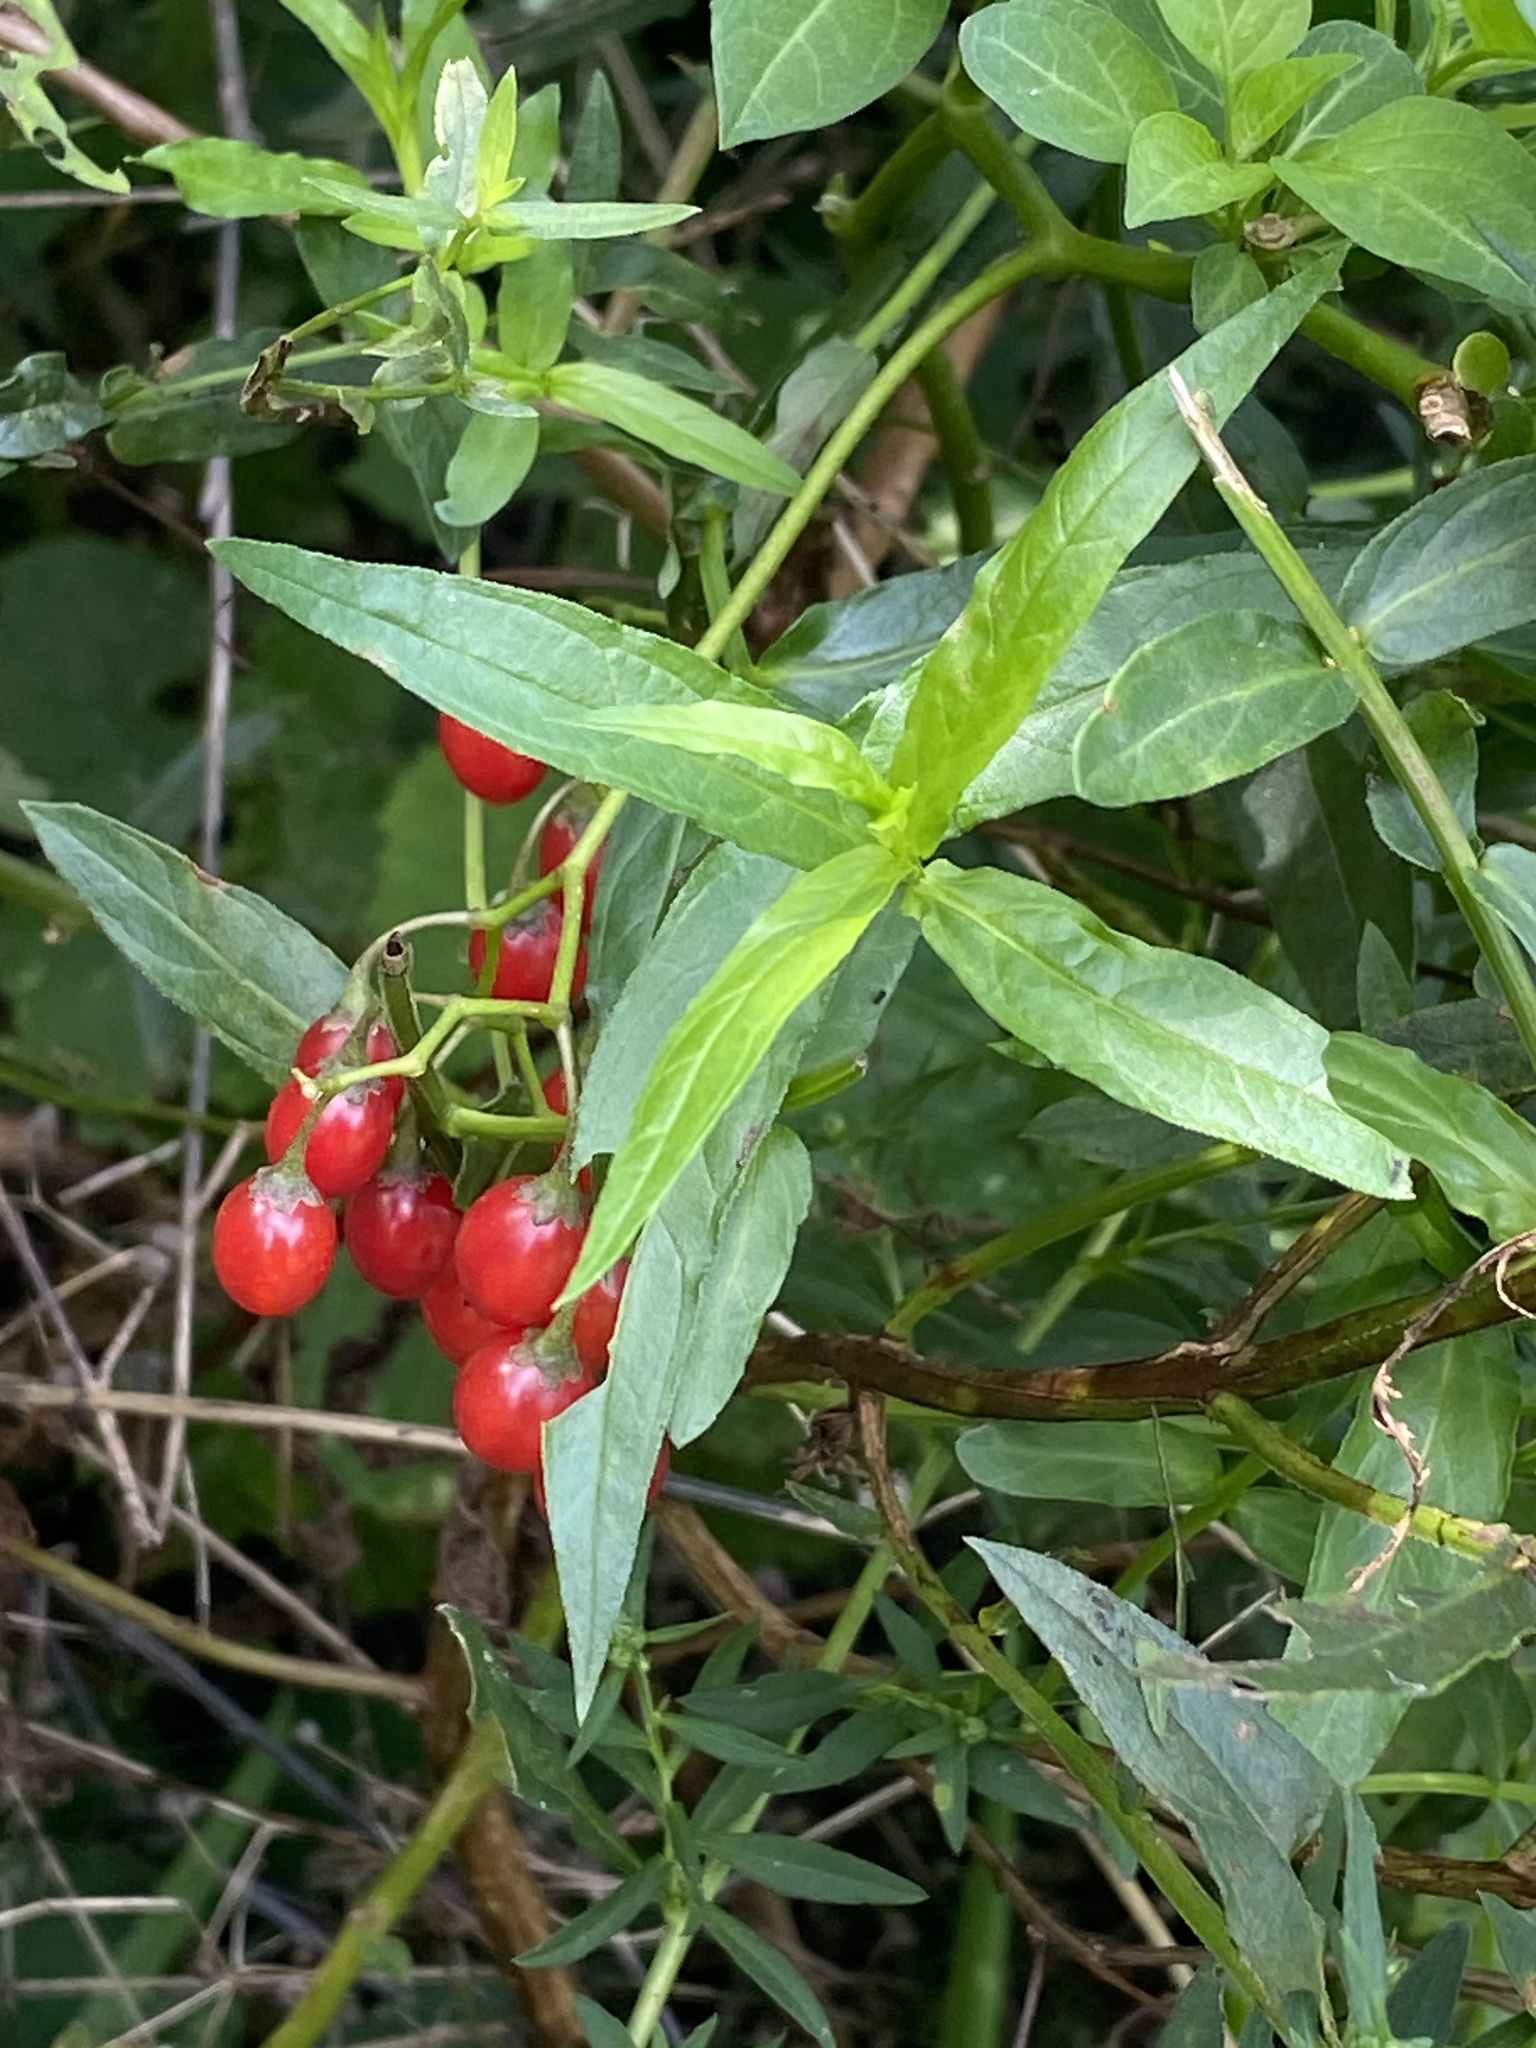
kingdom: Plantae
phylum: Tracheophyta
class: Magnoliopsida
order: Solanales
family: Solanaceae
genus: Solanum
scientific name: Solanum dulcamara
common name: Climbing nightshade
